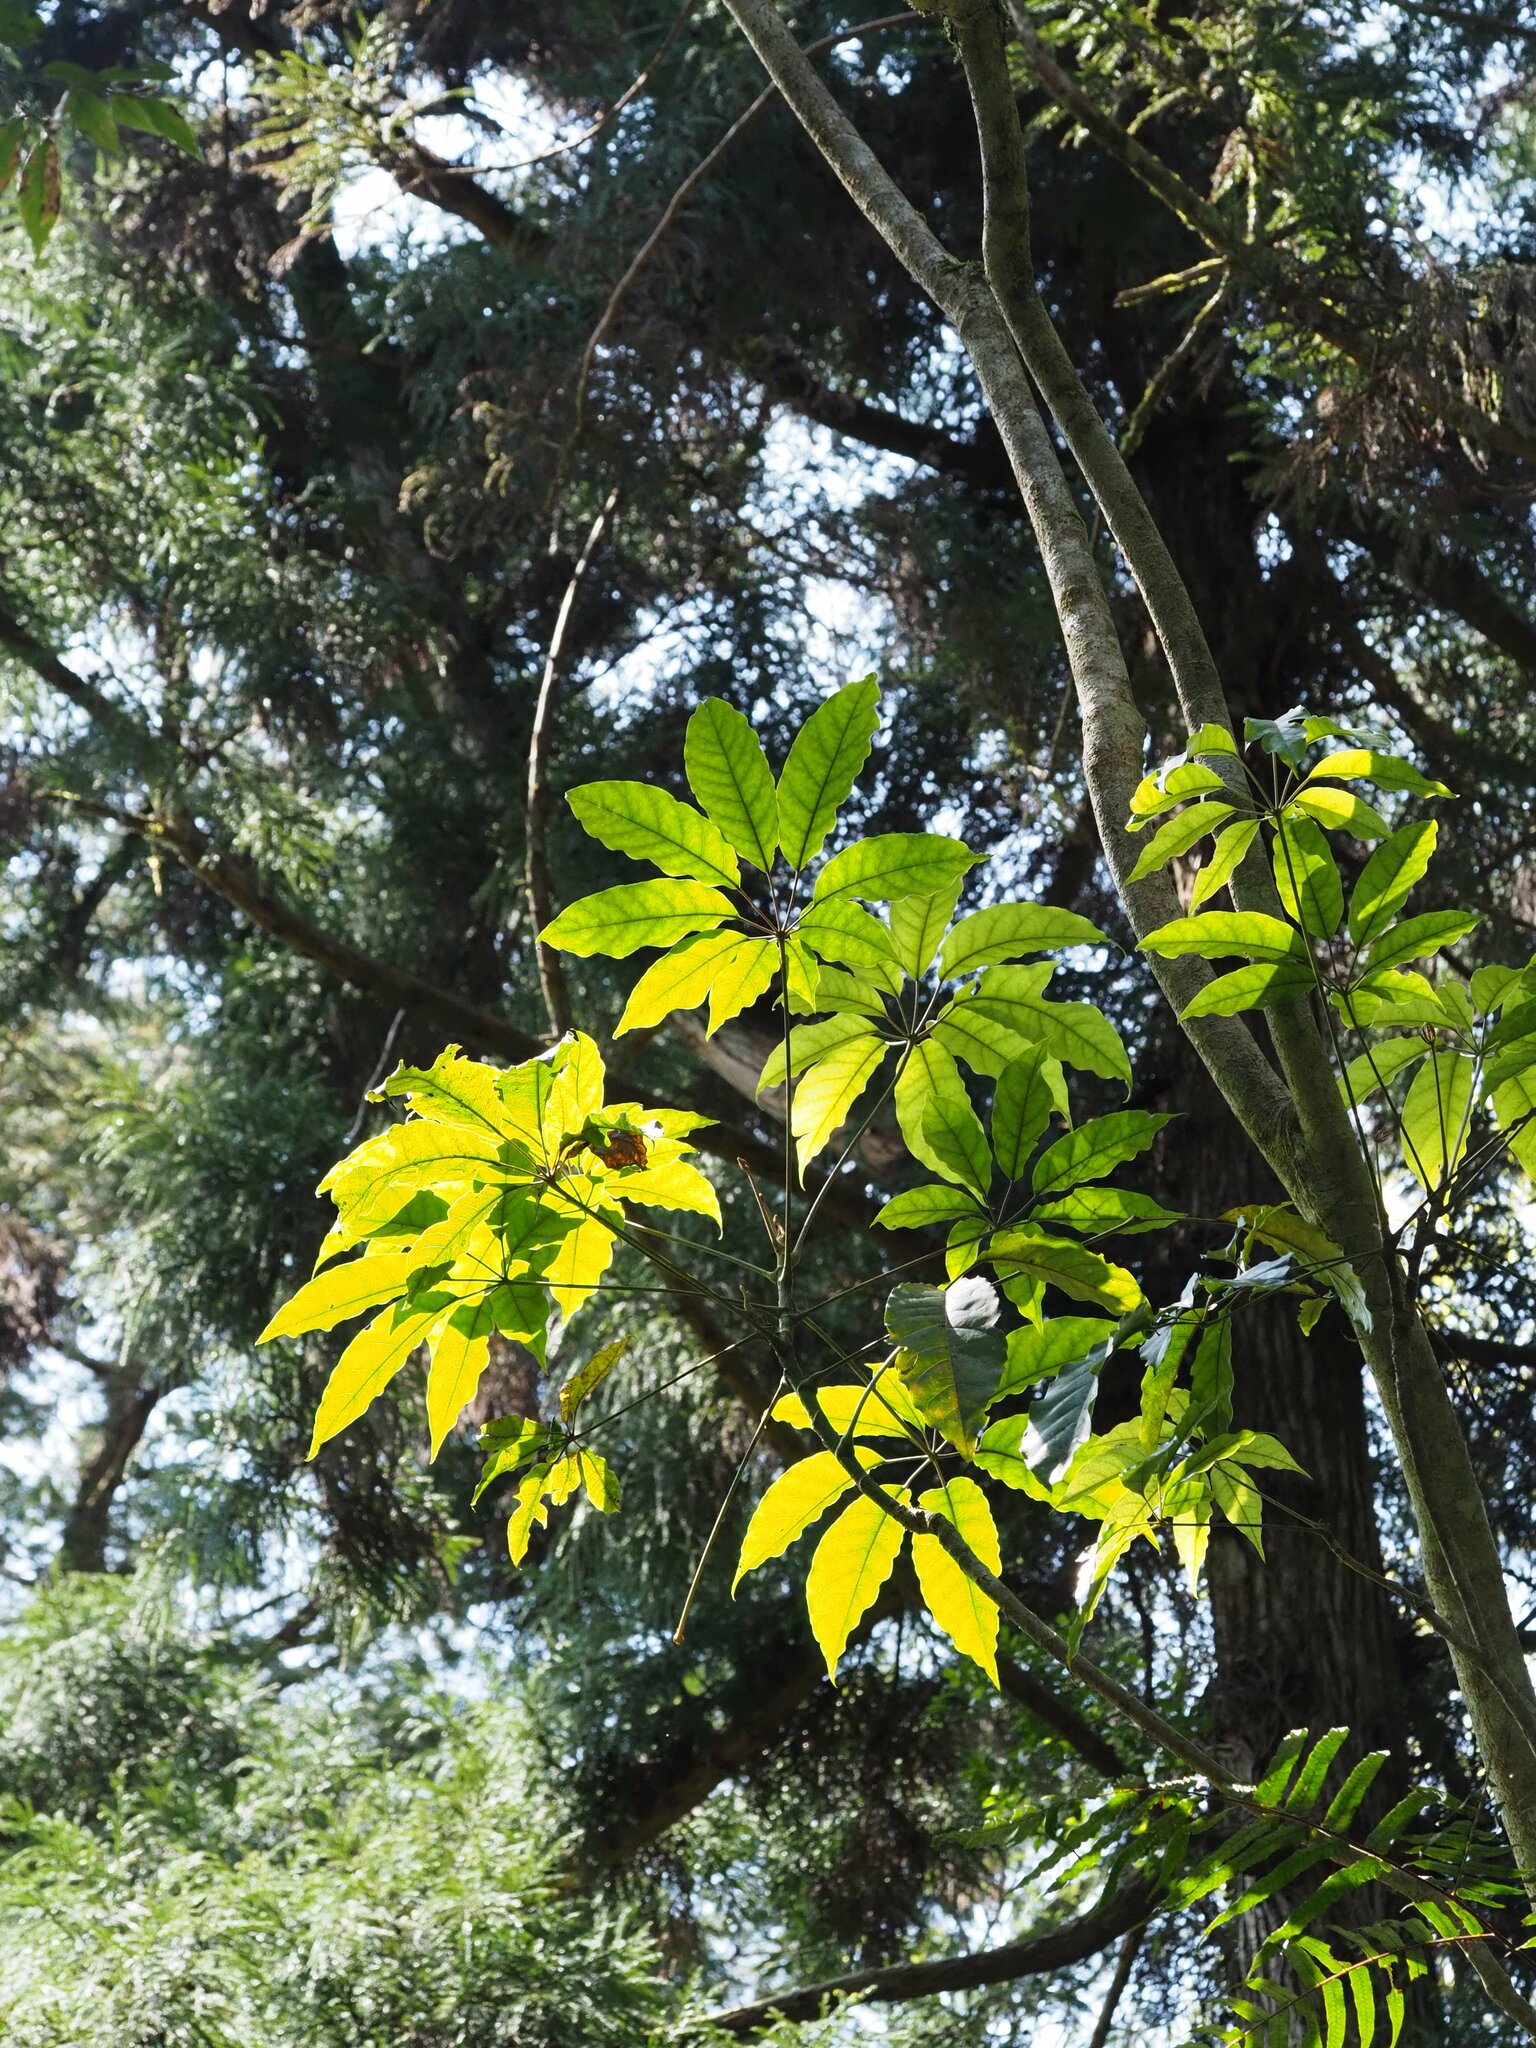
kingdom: Plantae
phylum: Tracheophyta
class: Magnoliopsida
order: Apiales
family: Araliaceae
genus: Heptapleurum
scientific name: Heptapleurum heptaphyllum
